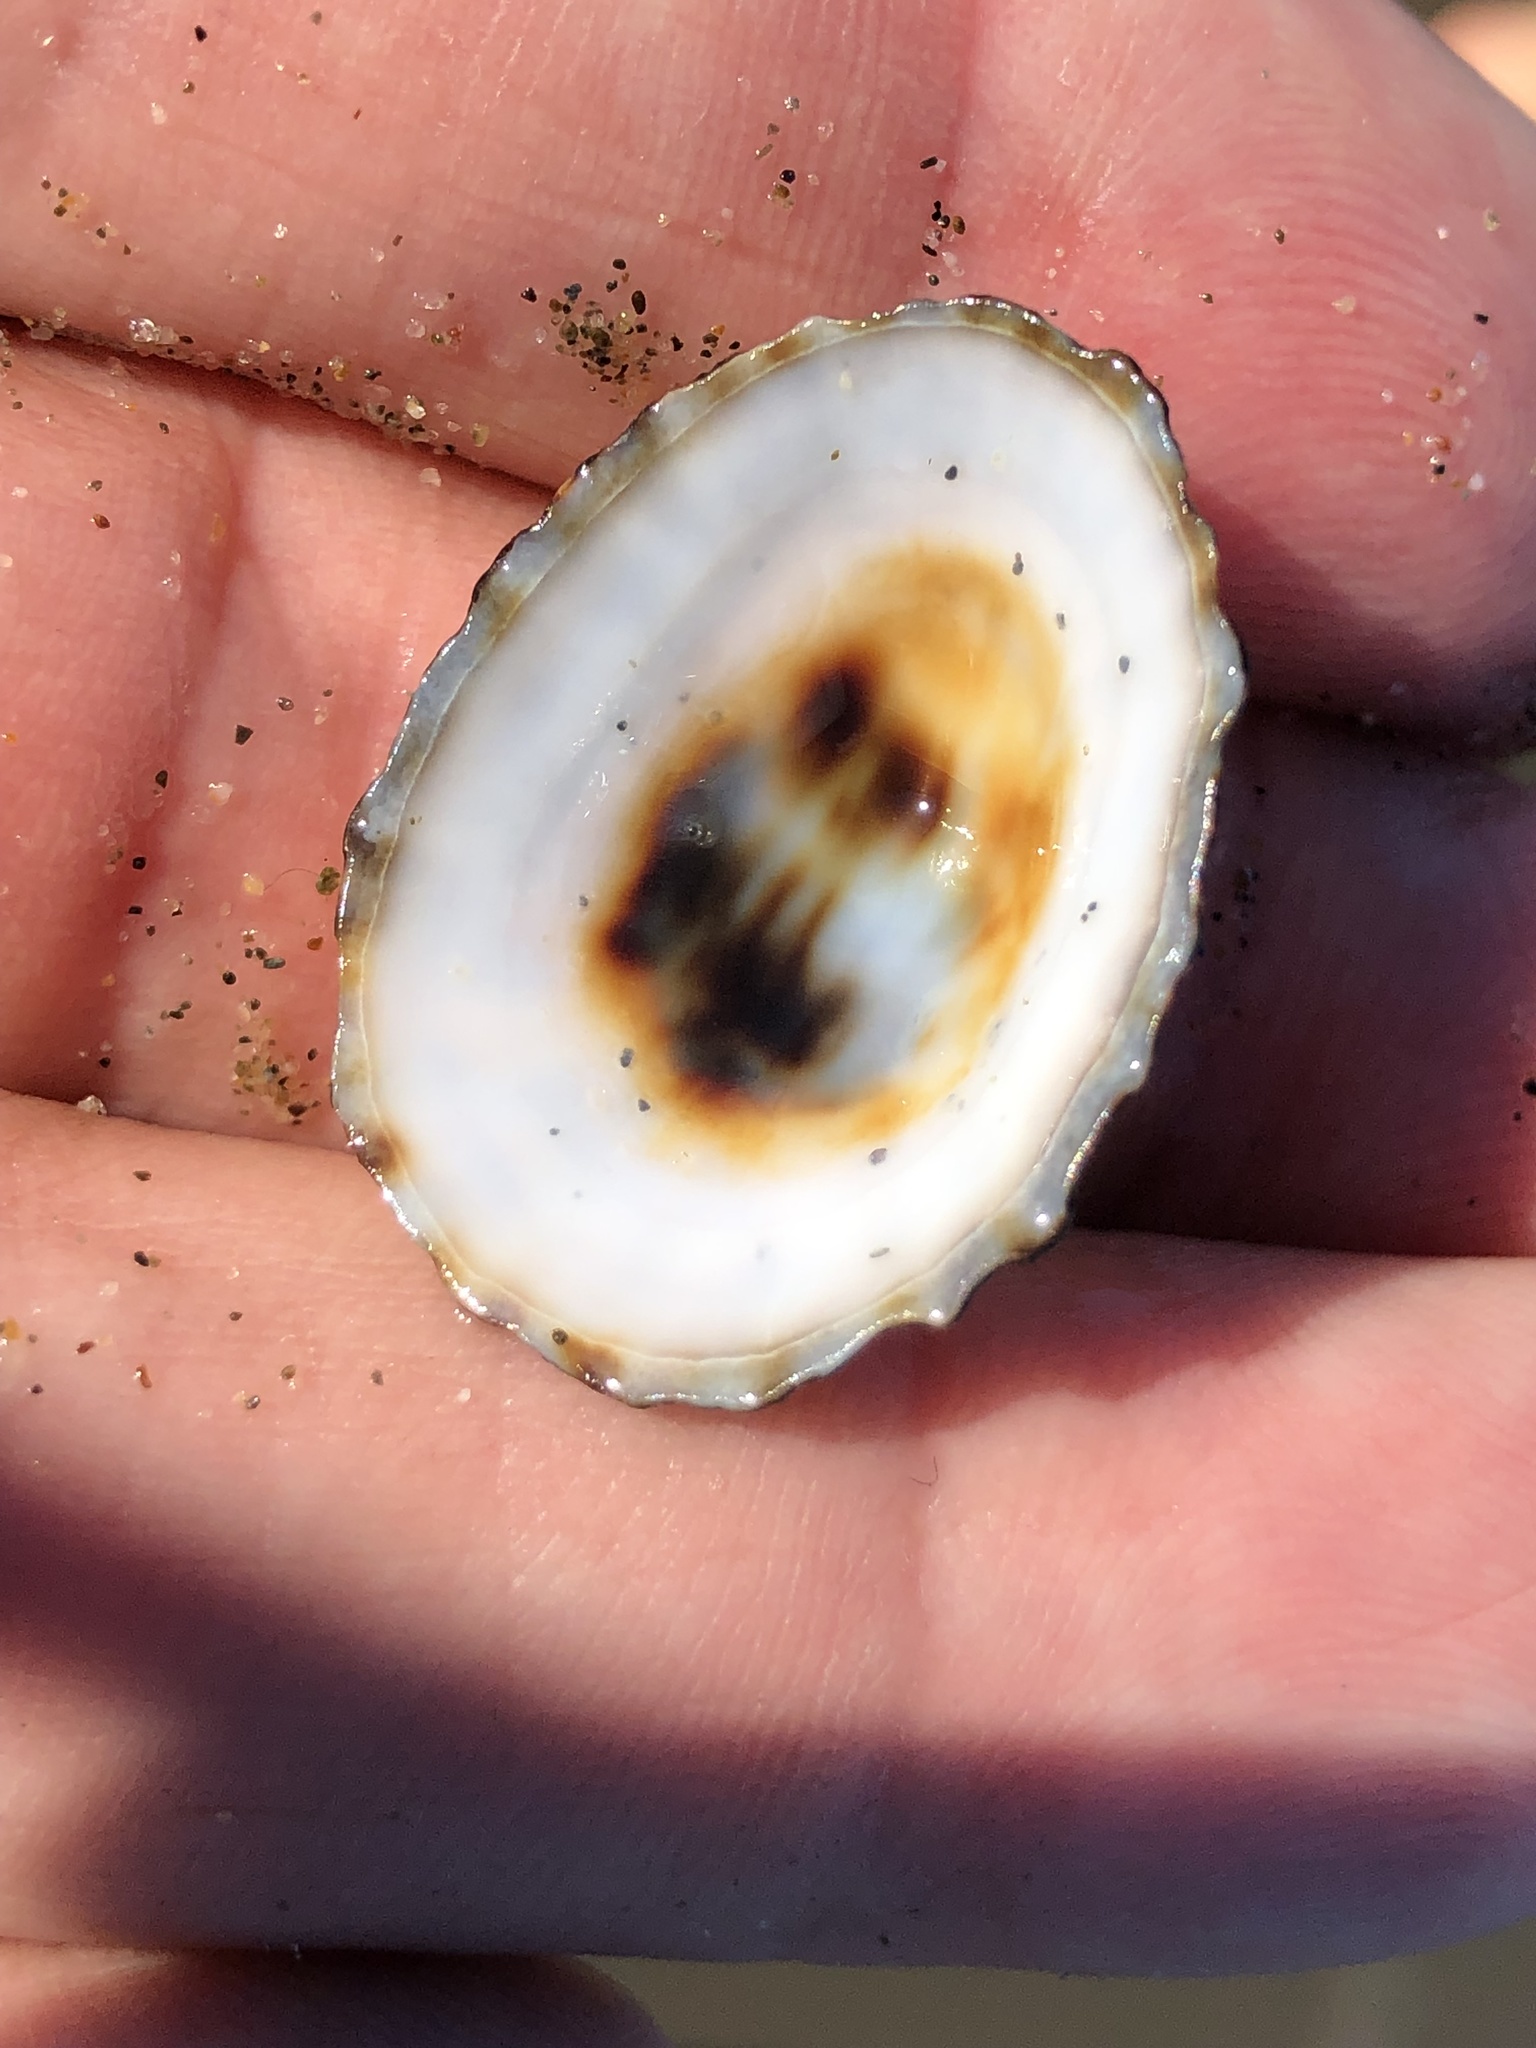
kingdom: Animalia
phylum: Mollusca
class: Gastropoda
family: Lottiidae
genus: Lottia
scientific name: Lottia pelta
